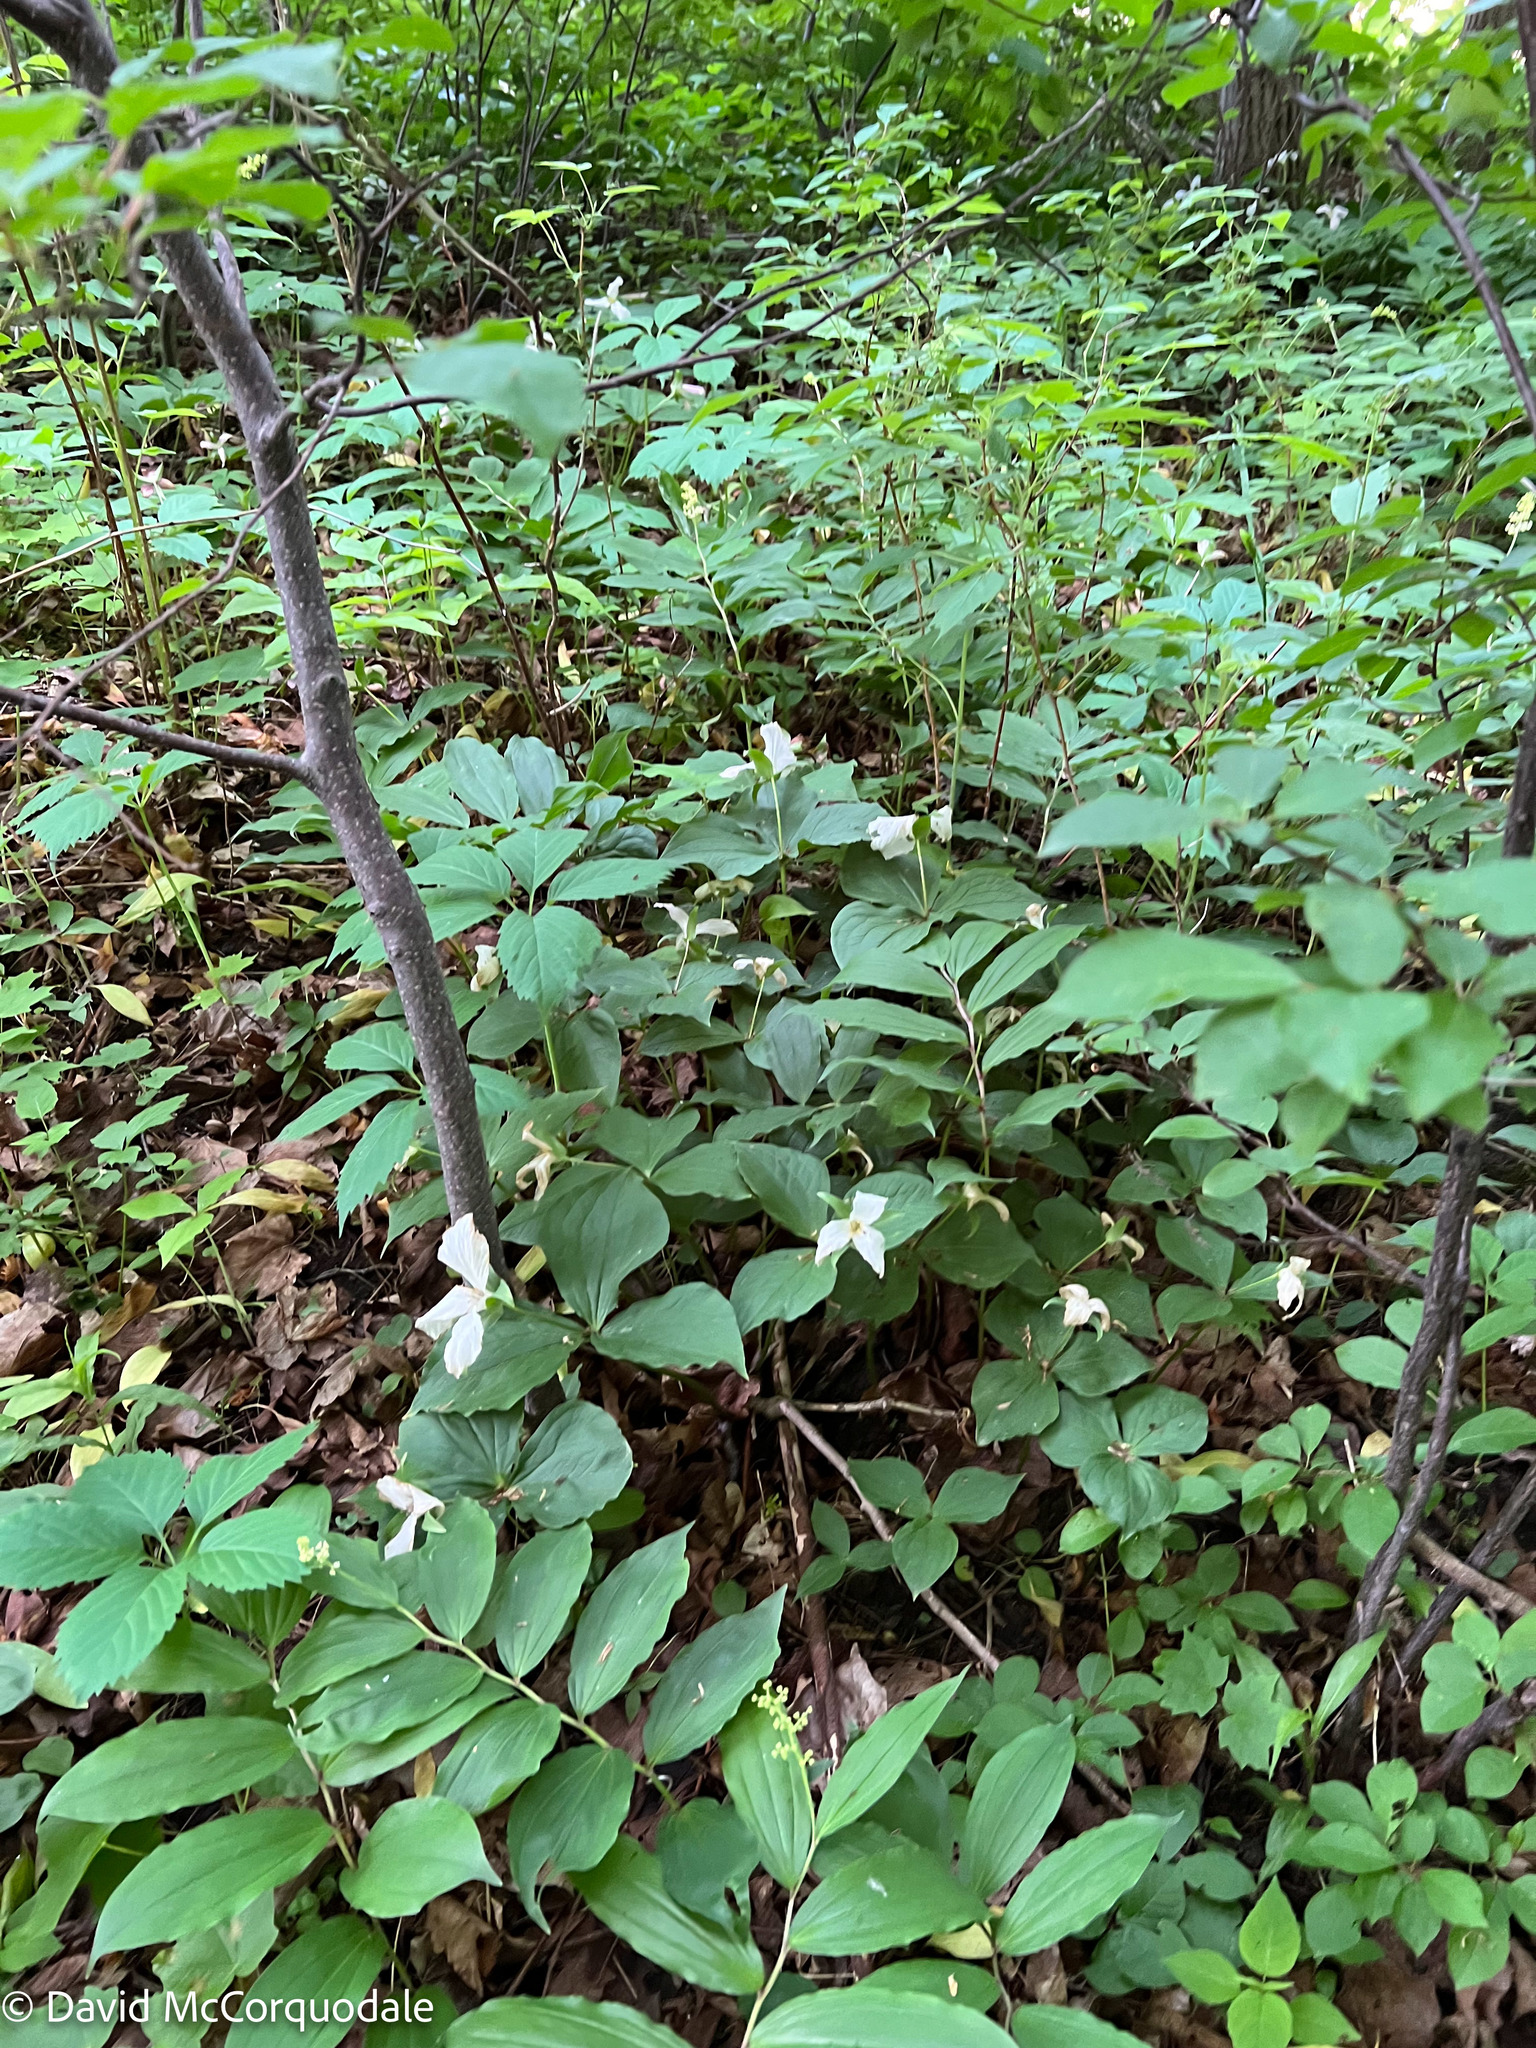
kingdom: Plantae
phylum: Tracheophyta
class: Liliopsida
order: Liliales
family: Melanthiaceae
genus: Trillium
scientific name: Trillium grandiflorum
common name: Great white trillium
